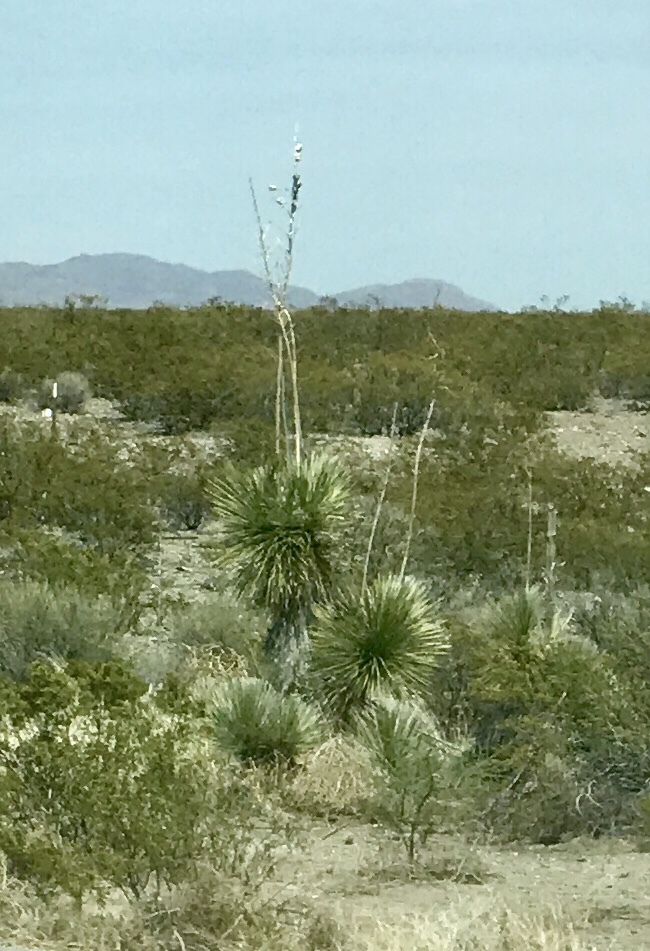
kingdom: Plantae
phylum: Tracheophyta
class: Liliopsida
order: Asparagales
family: Asparagaceae
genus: Yucca
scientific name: Yucca elata
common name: Palmella
